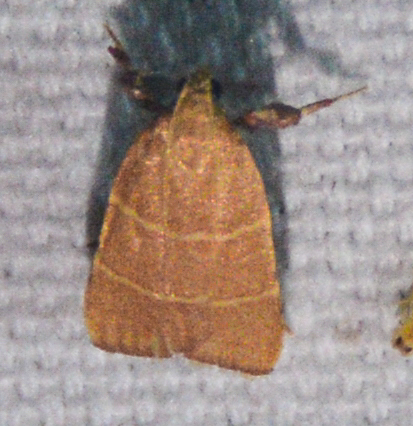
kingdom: Animalia
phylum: Arthropoda
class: Insecta
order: Lepidoptera
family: Pyralidae
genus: Parachma
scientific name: Parachma ochracealis
